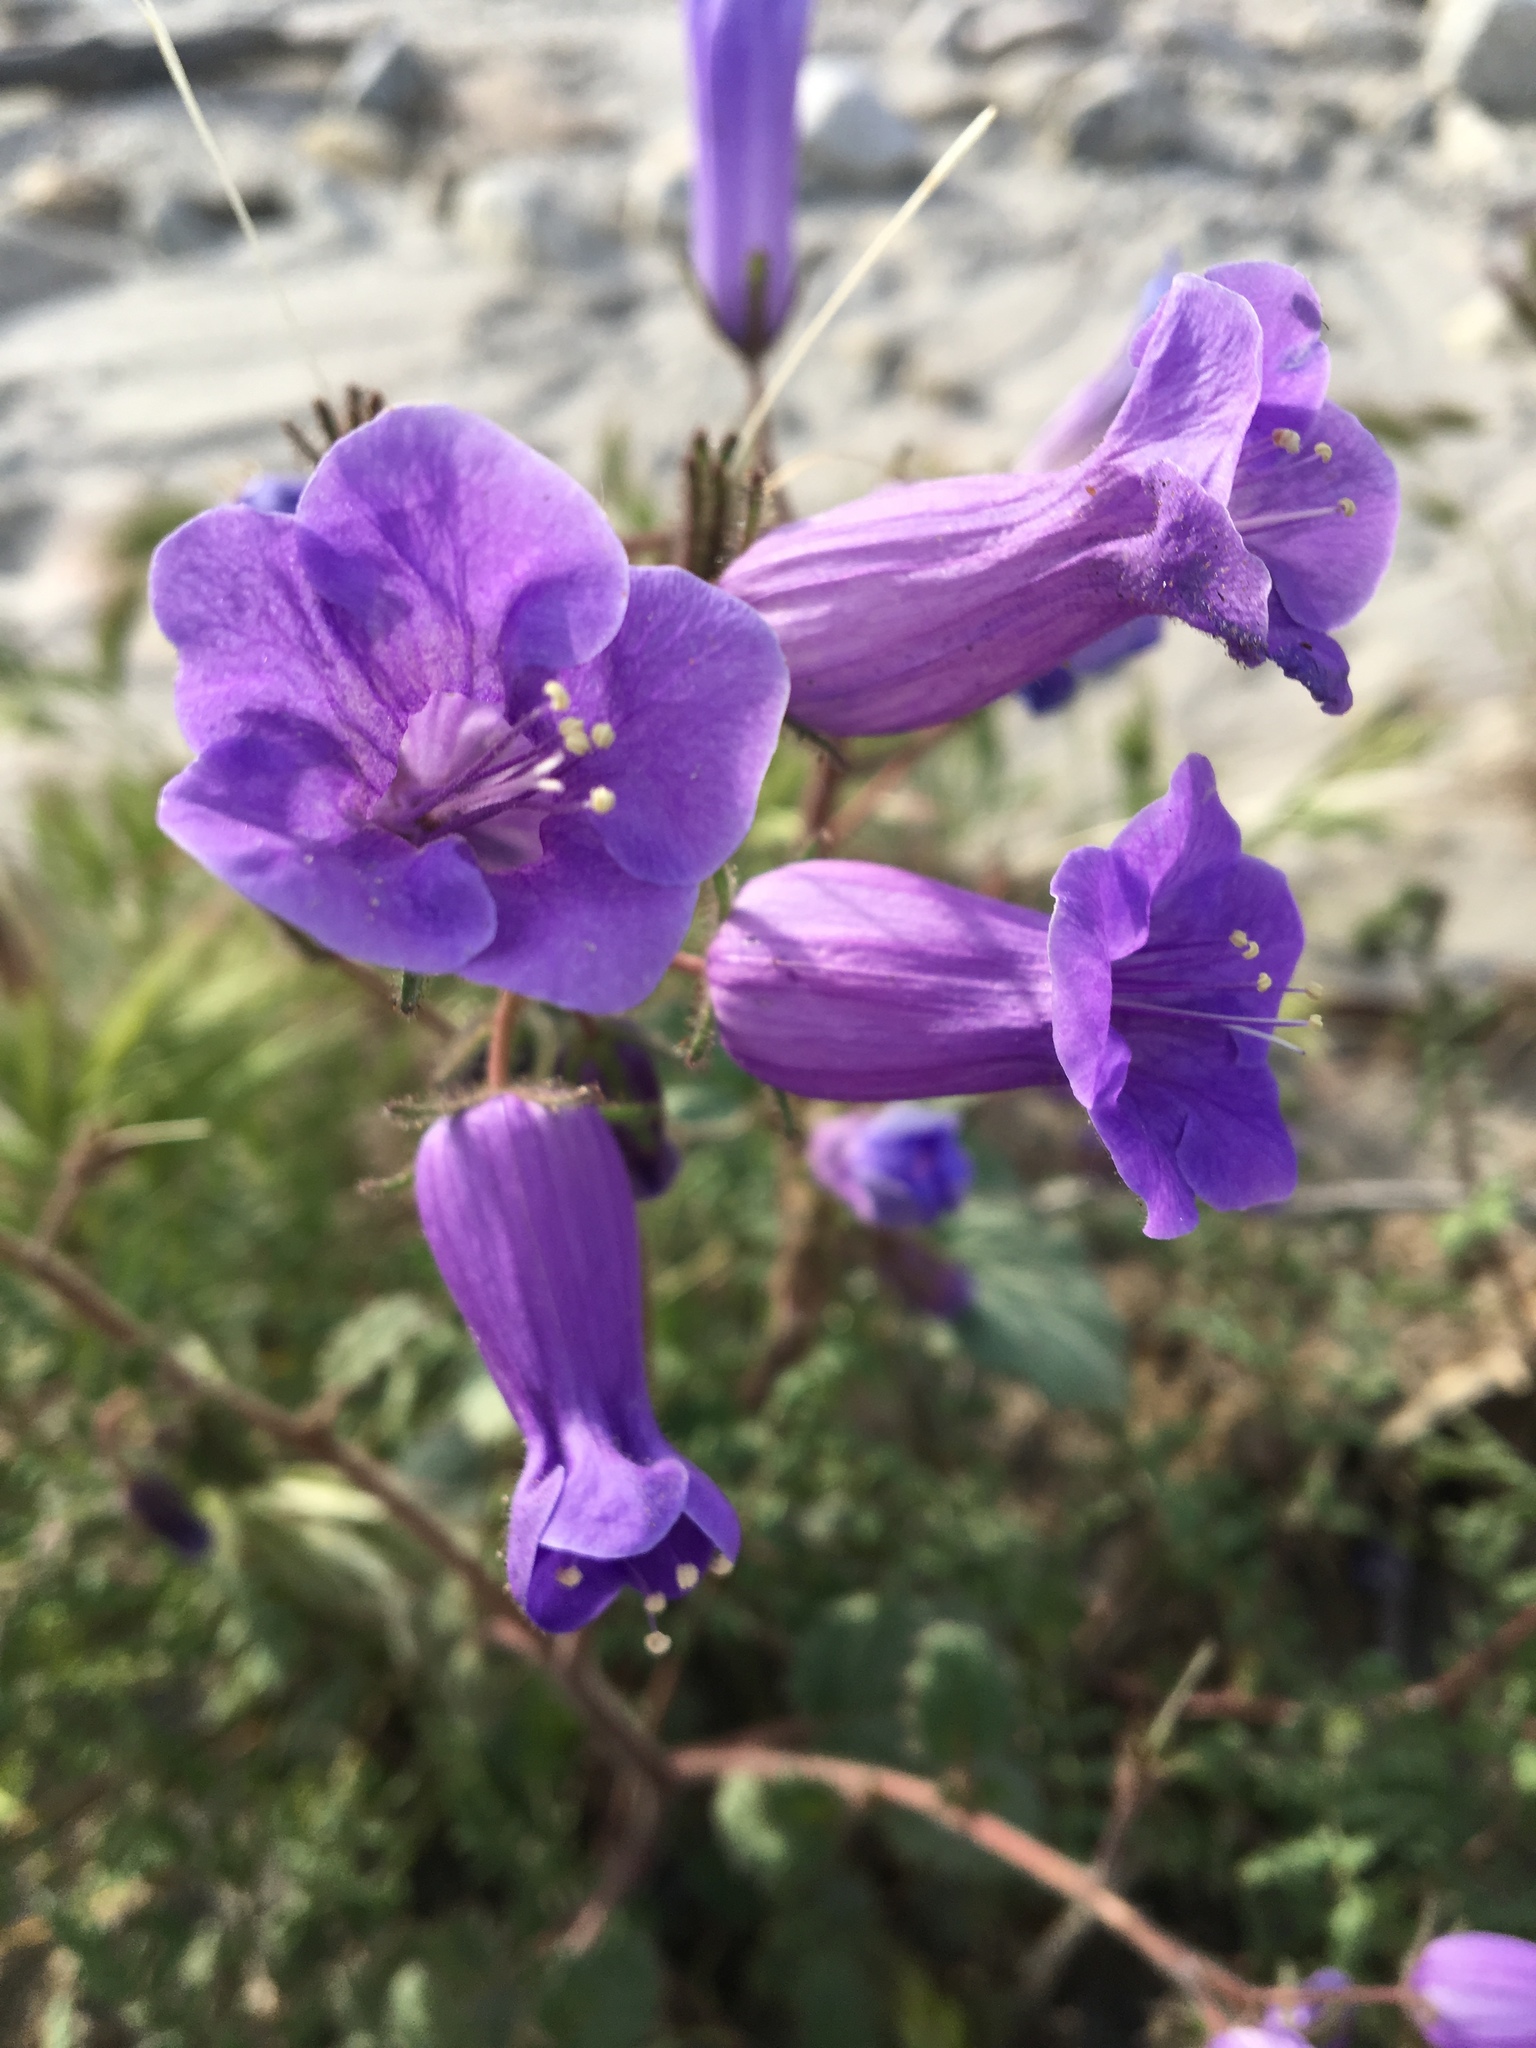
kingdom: Plantae
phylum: Tracheophyta
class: Magnoliopsida
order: Boraginales
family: Hydrophyllaceae
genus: Phacelia
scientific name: Phacelia minor
